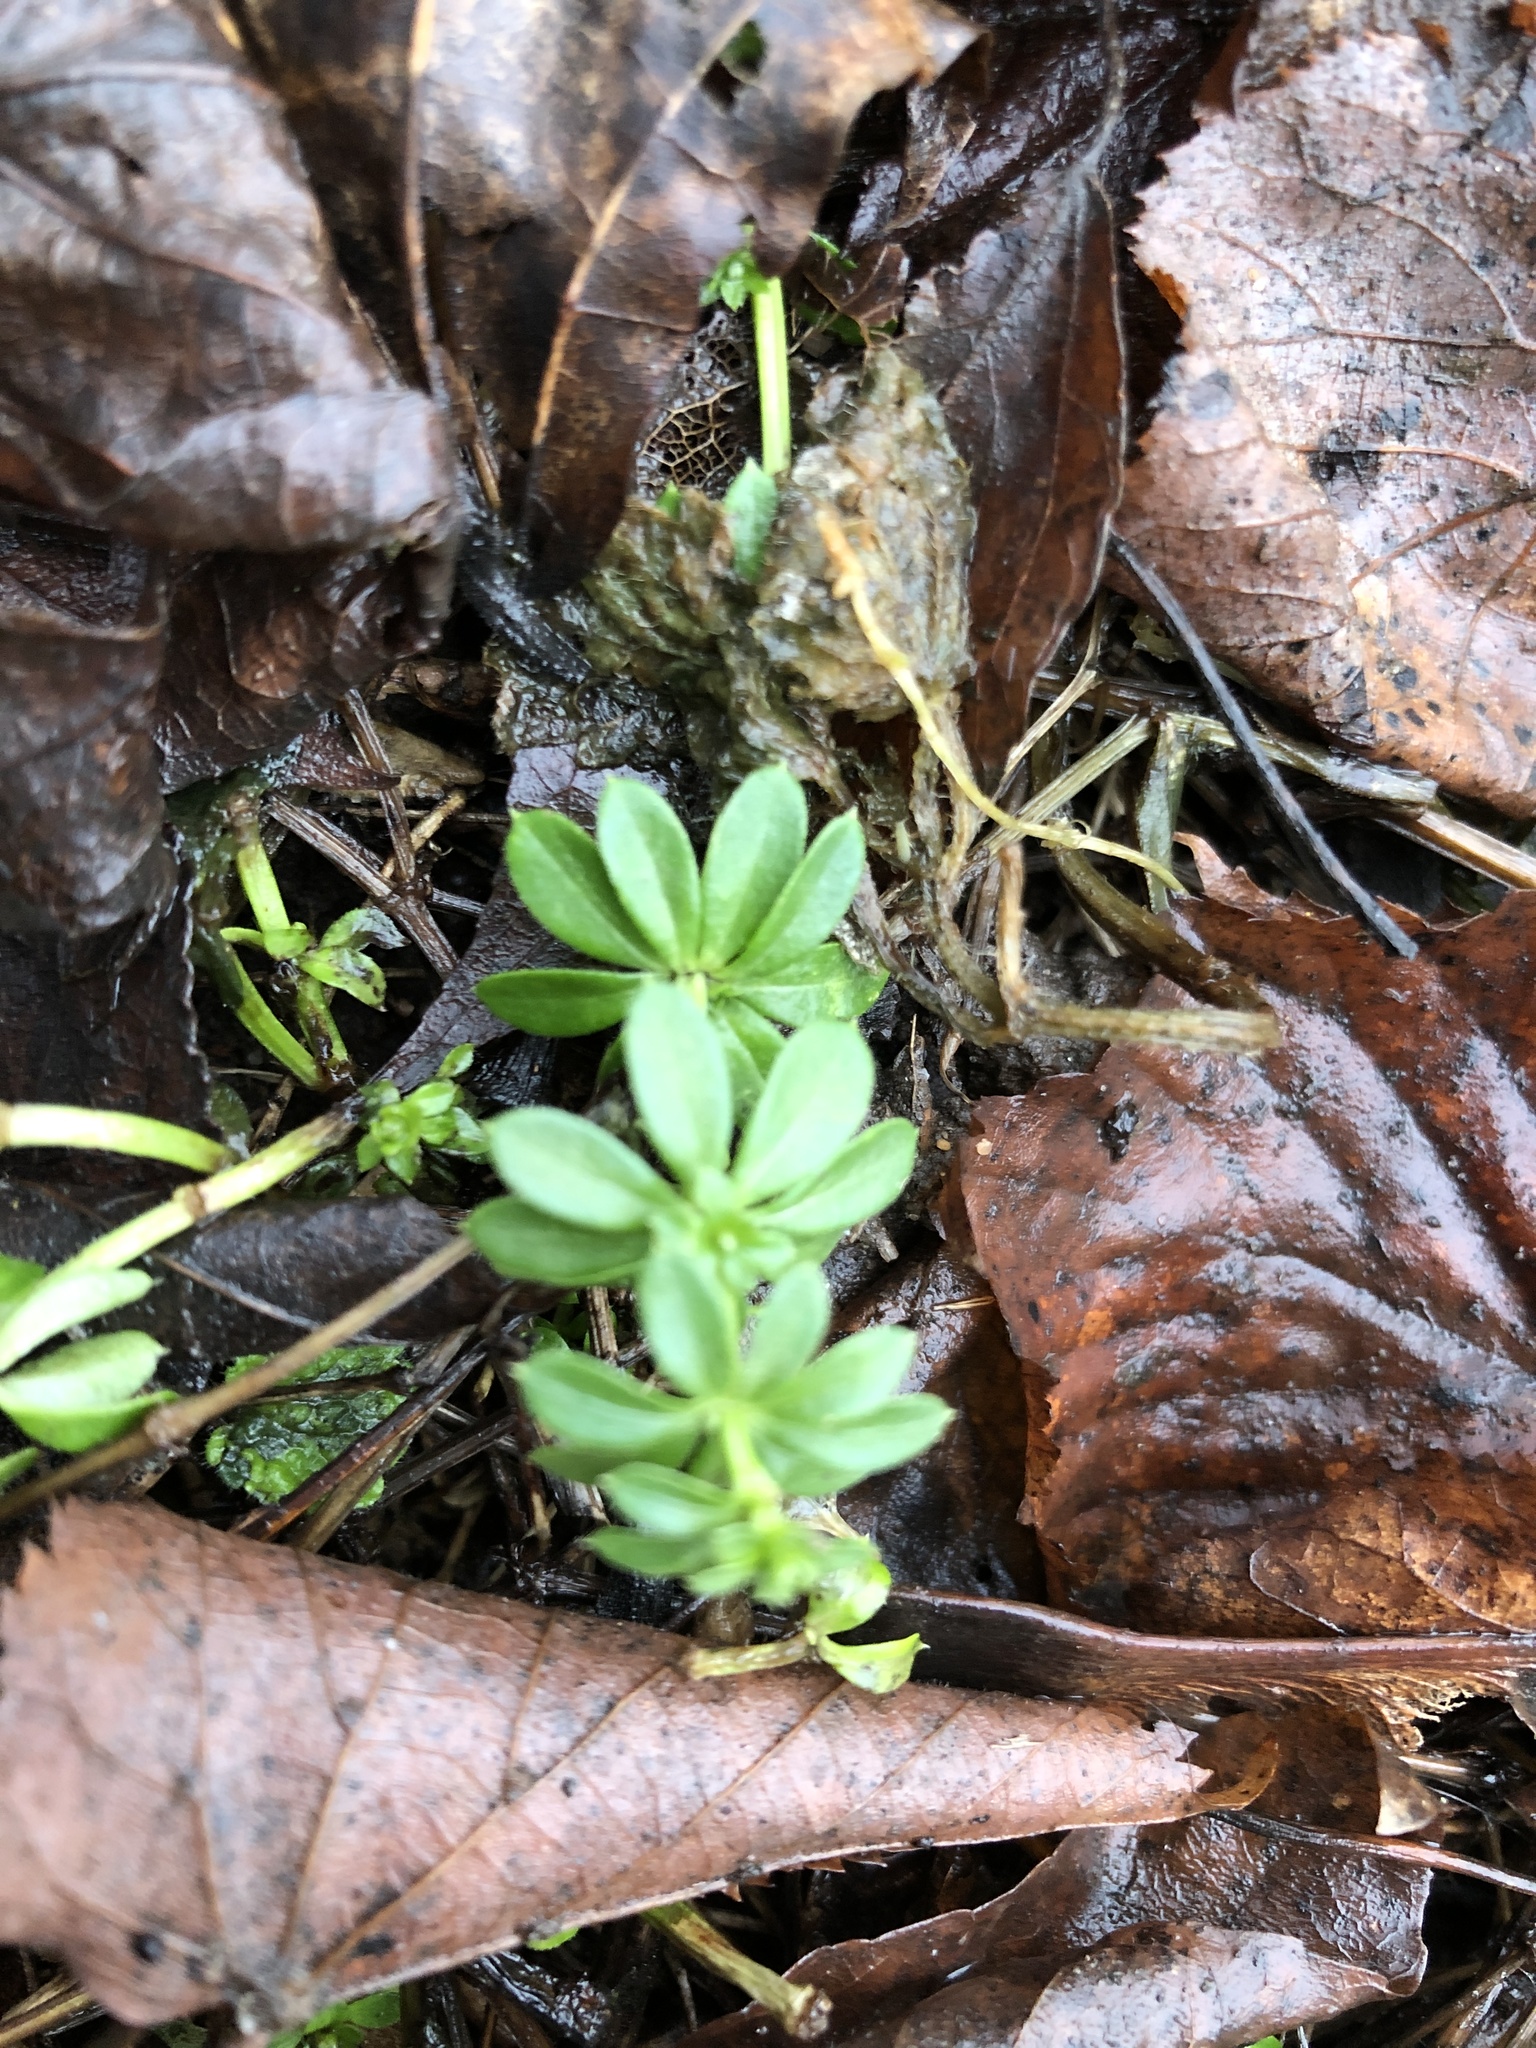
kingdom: Plantae
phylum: Tracheophyta
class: Magnoliopsida
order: Gentianales
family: Rubiaceae
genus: Galium
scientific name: Galium mollugo
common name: Hedge bedstraw
